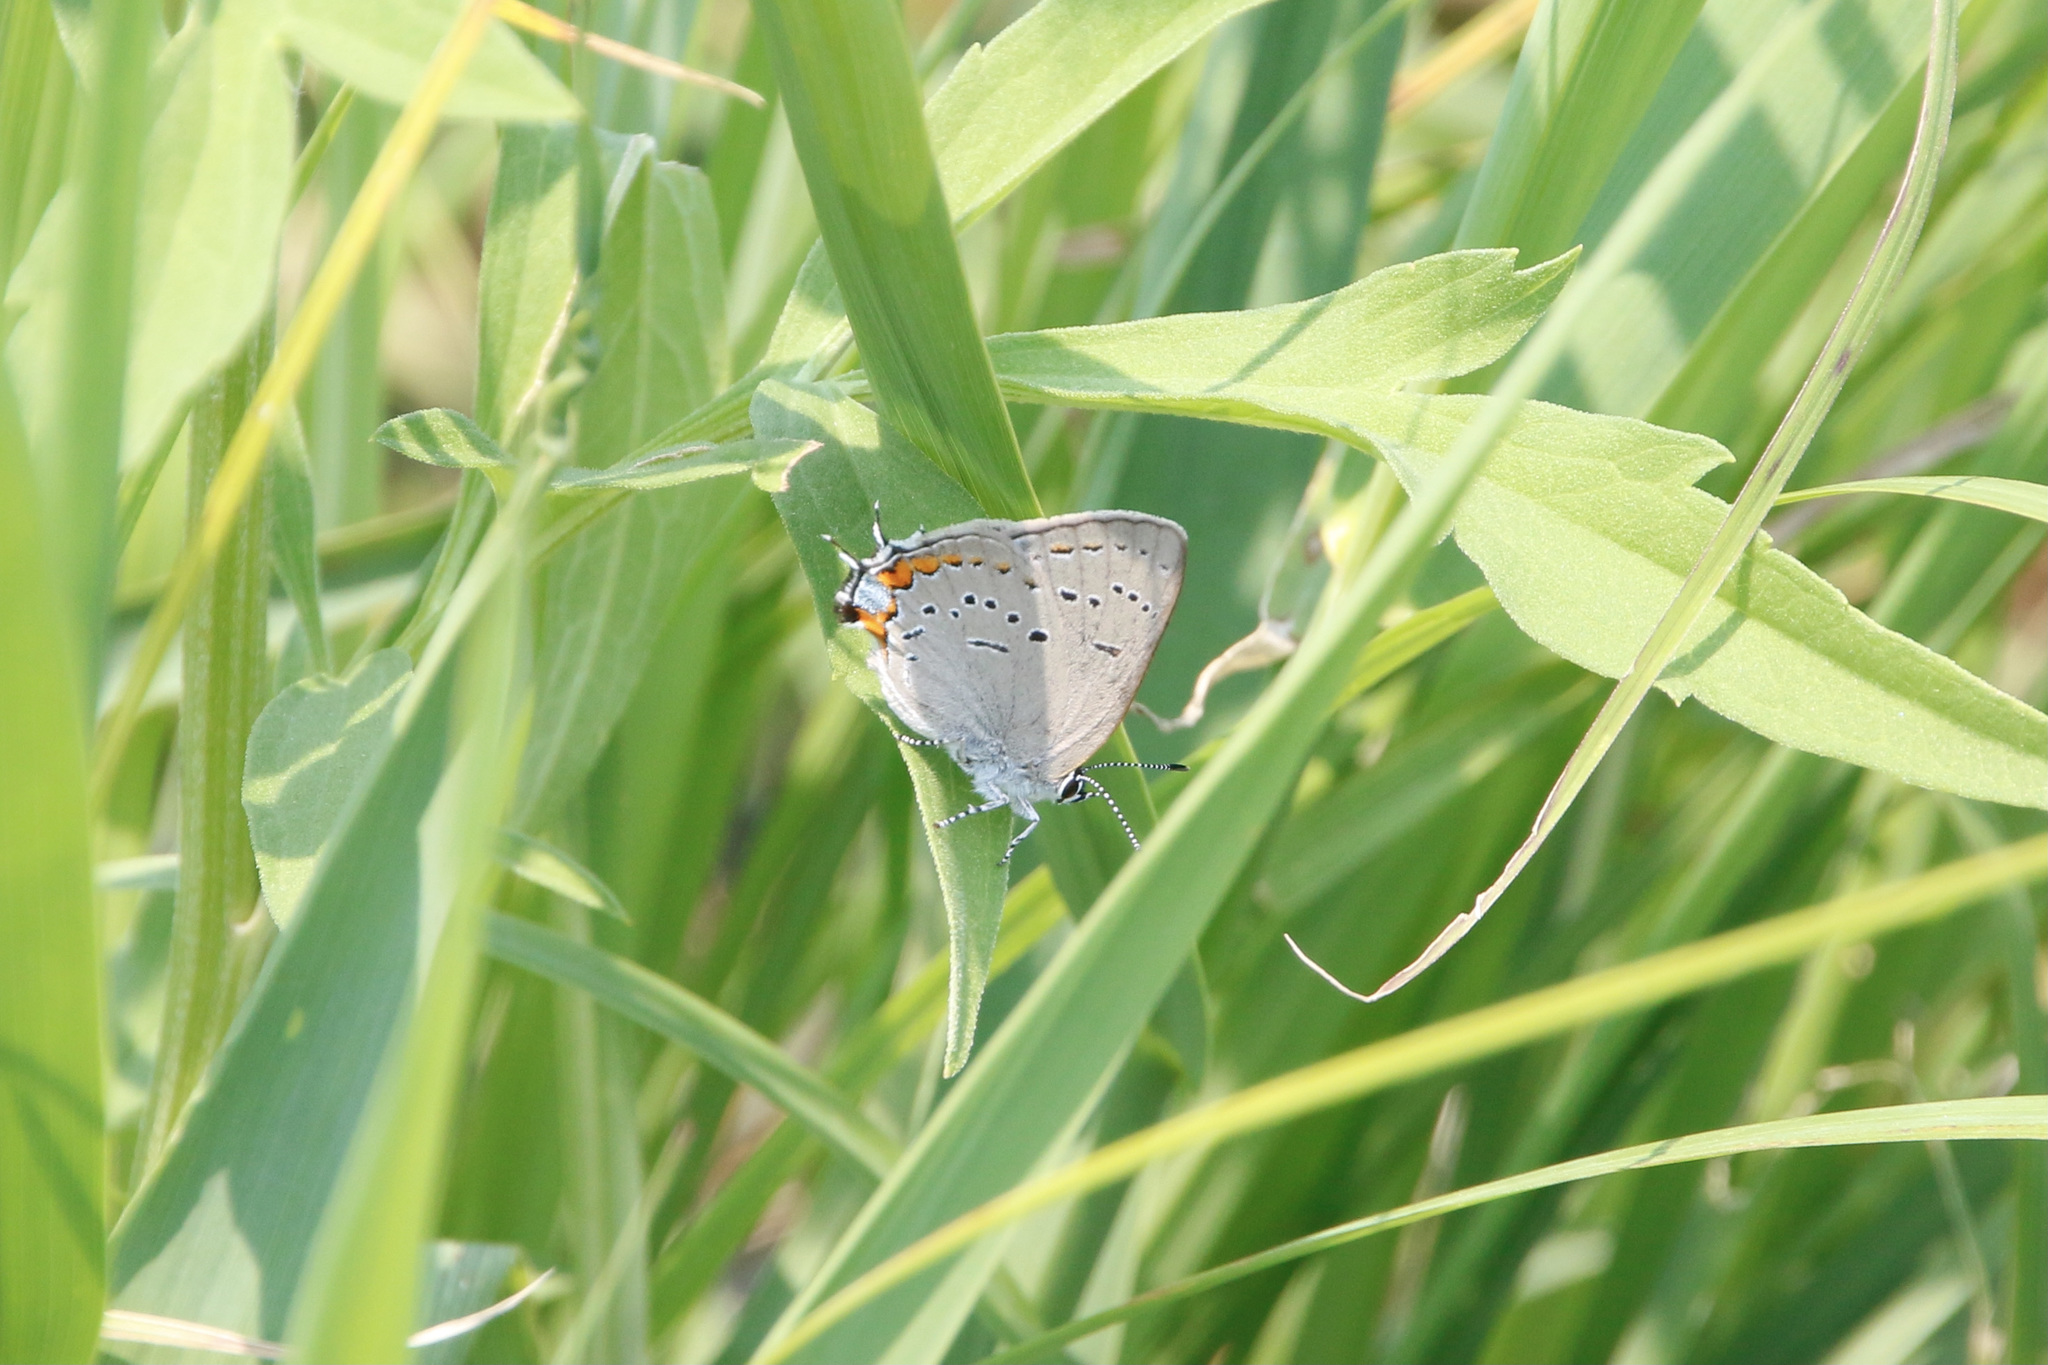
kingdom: Animalia
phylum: Arthropoda
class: Insecta
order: Lepidoptera
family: Lycaenidae
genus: Strymon
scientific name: Strymon acadica
